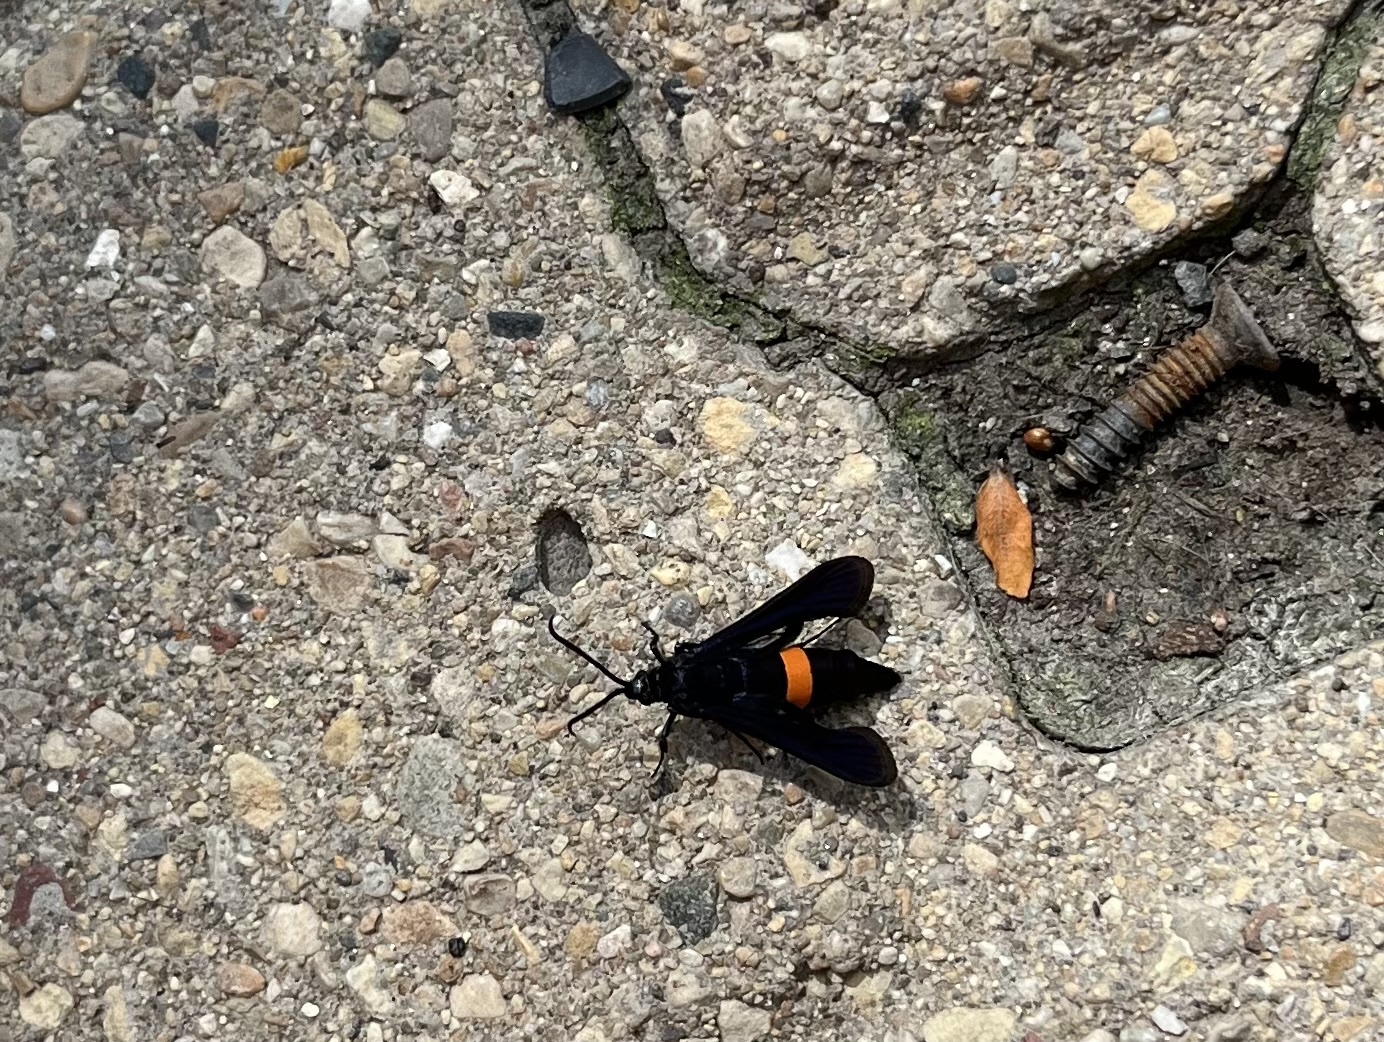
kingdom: Animalia
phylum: Arthropoda
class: Insecta
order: Lepidoptera
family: Sesiidae
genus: Synanthedon
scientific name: Synanthedon exitiosa
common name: Peachtree borer moth
